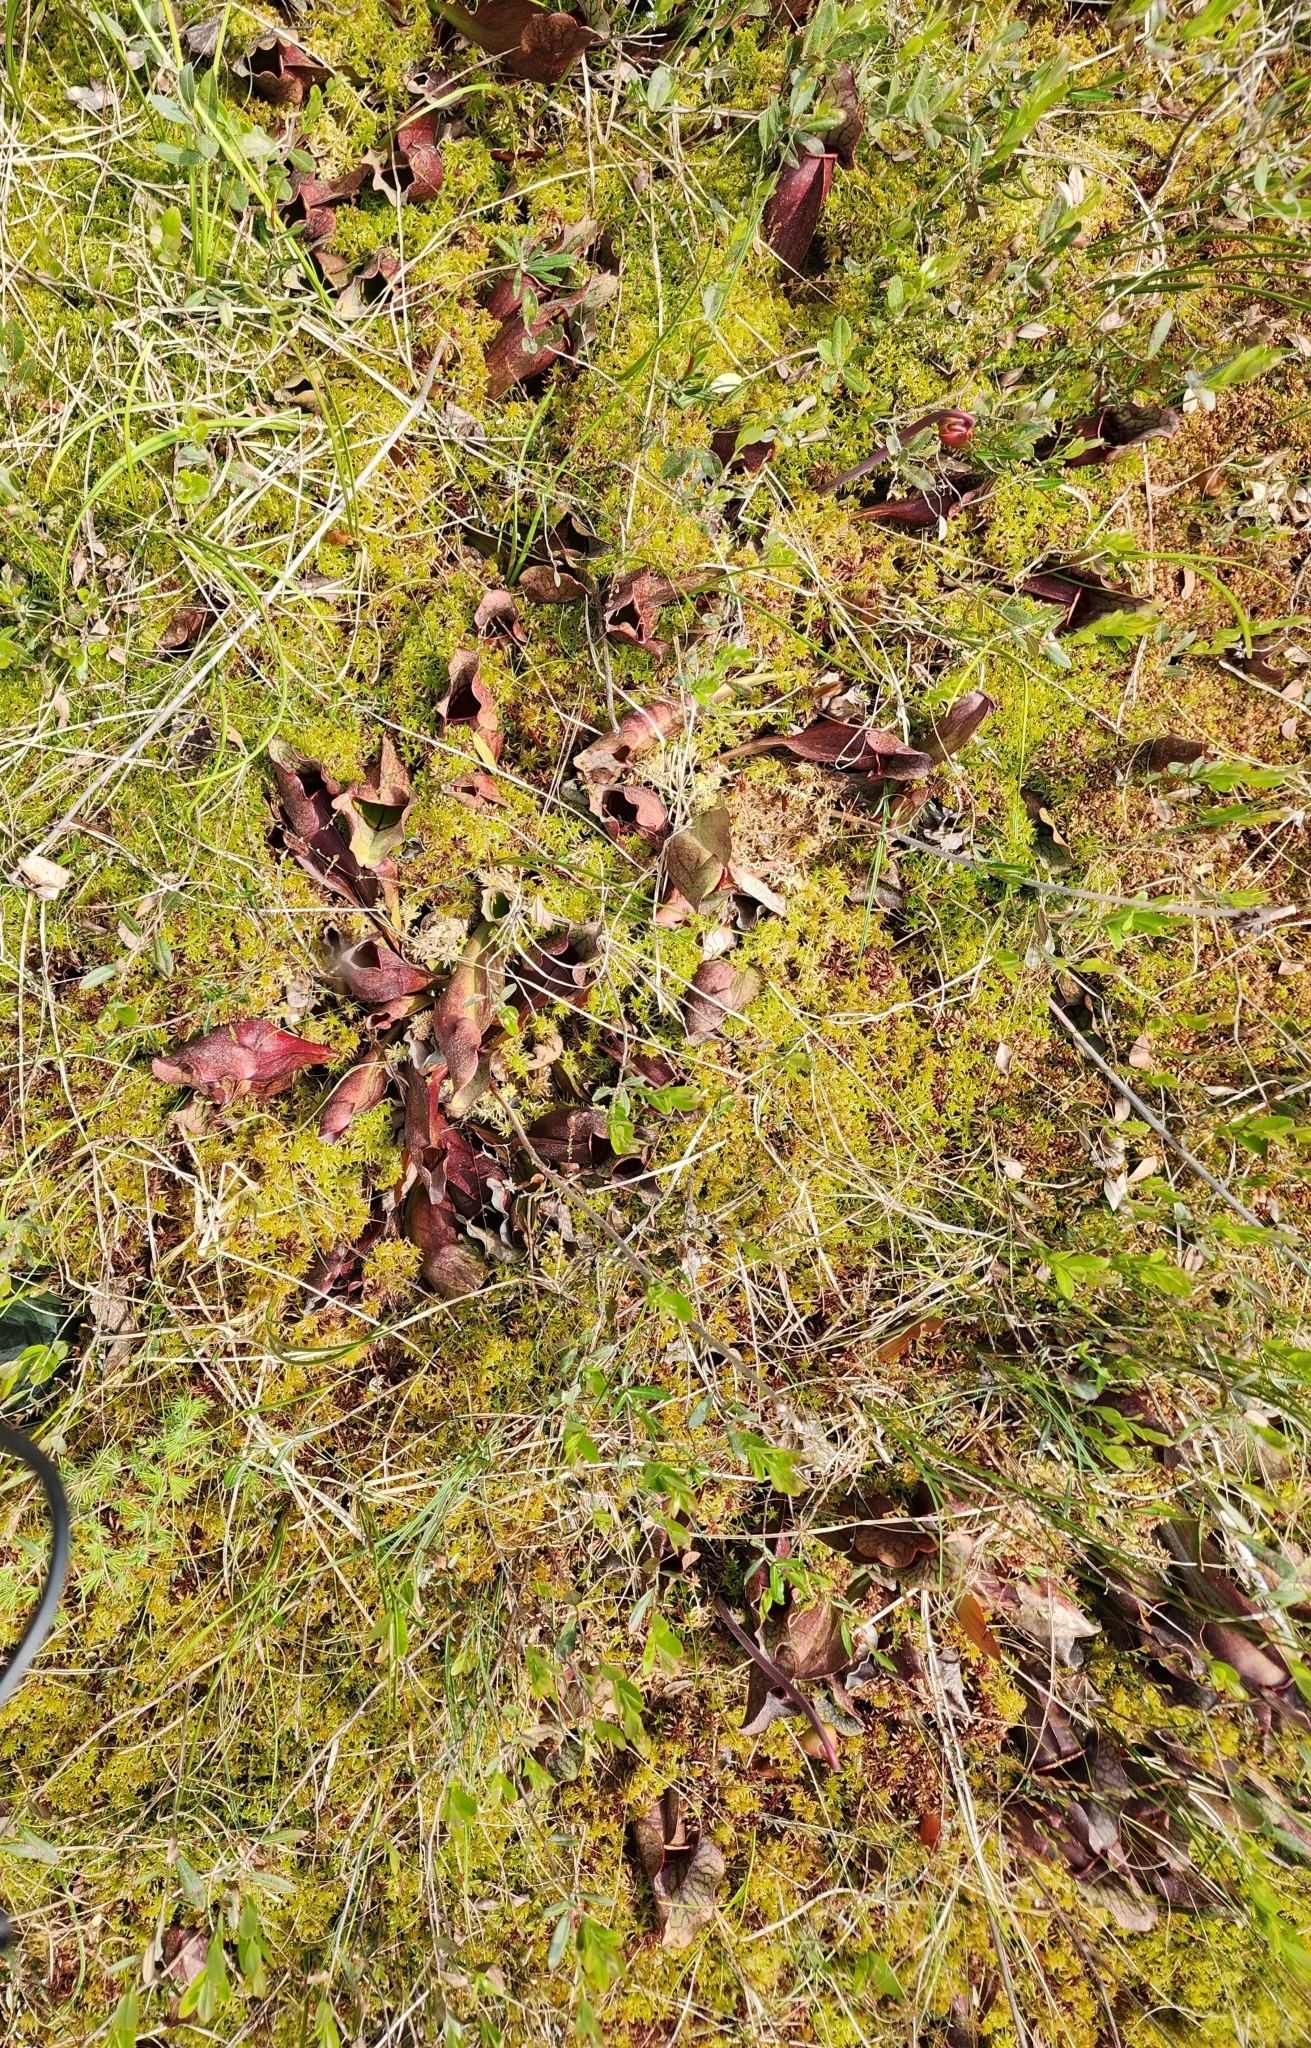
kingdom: Plantae
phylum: Tracheophyta
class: Magnoliopsida
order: Ericales
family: Sarraceniaceae
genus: Sarracenia
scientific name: Sarracenia purpurea
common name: Pitcherplant
